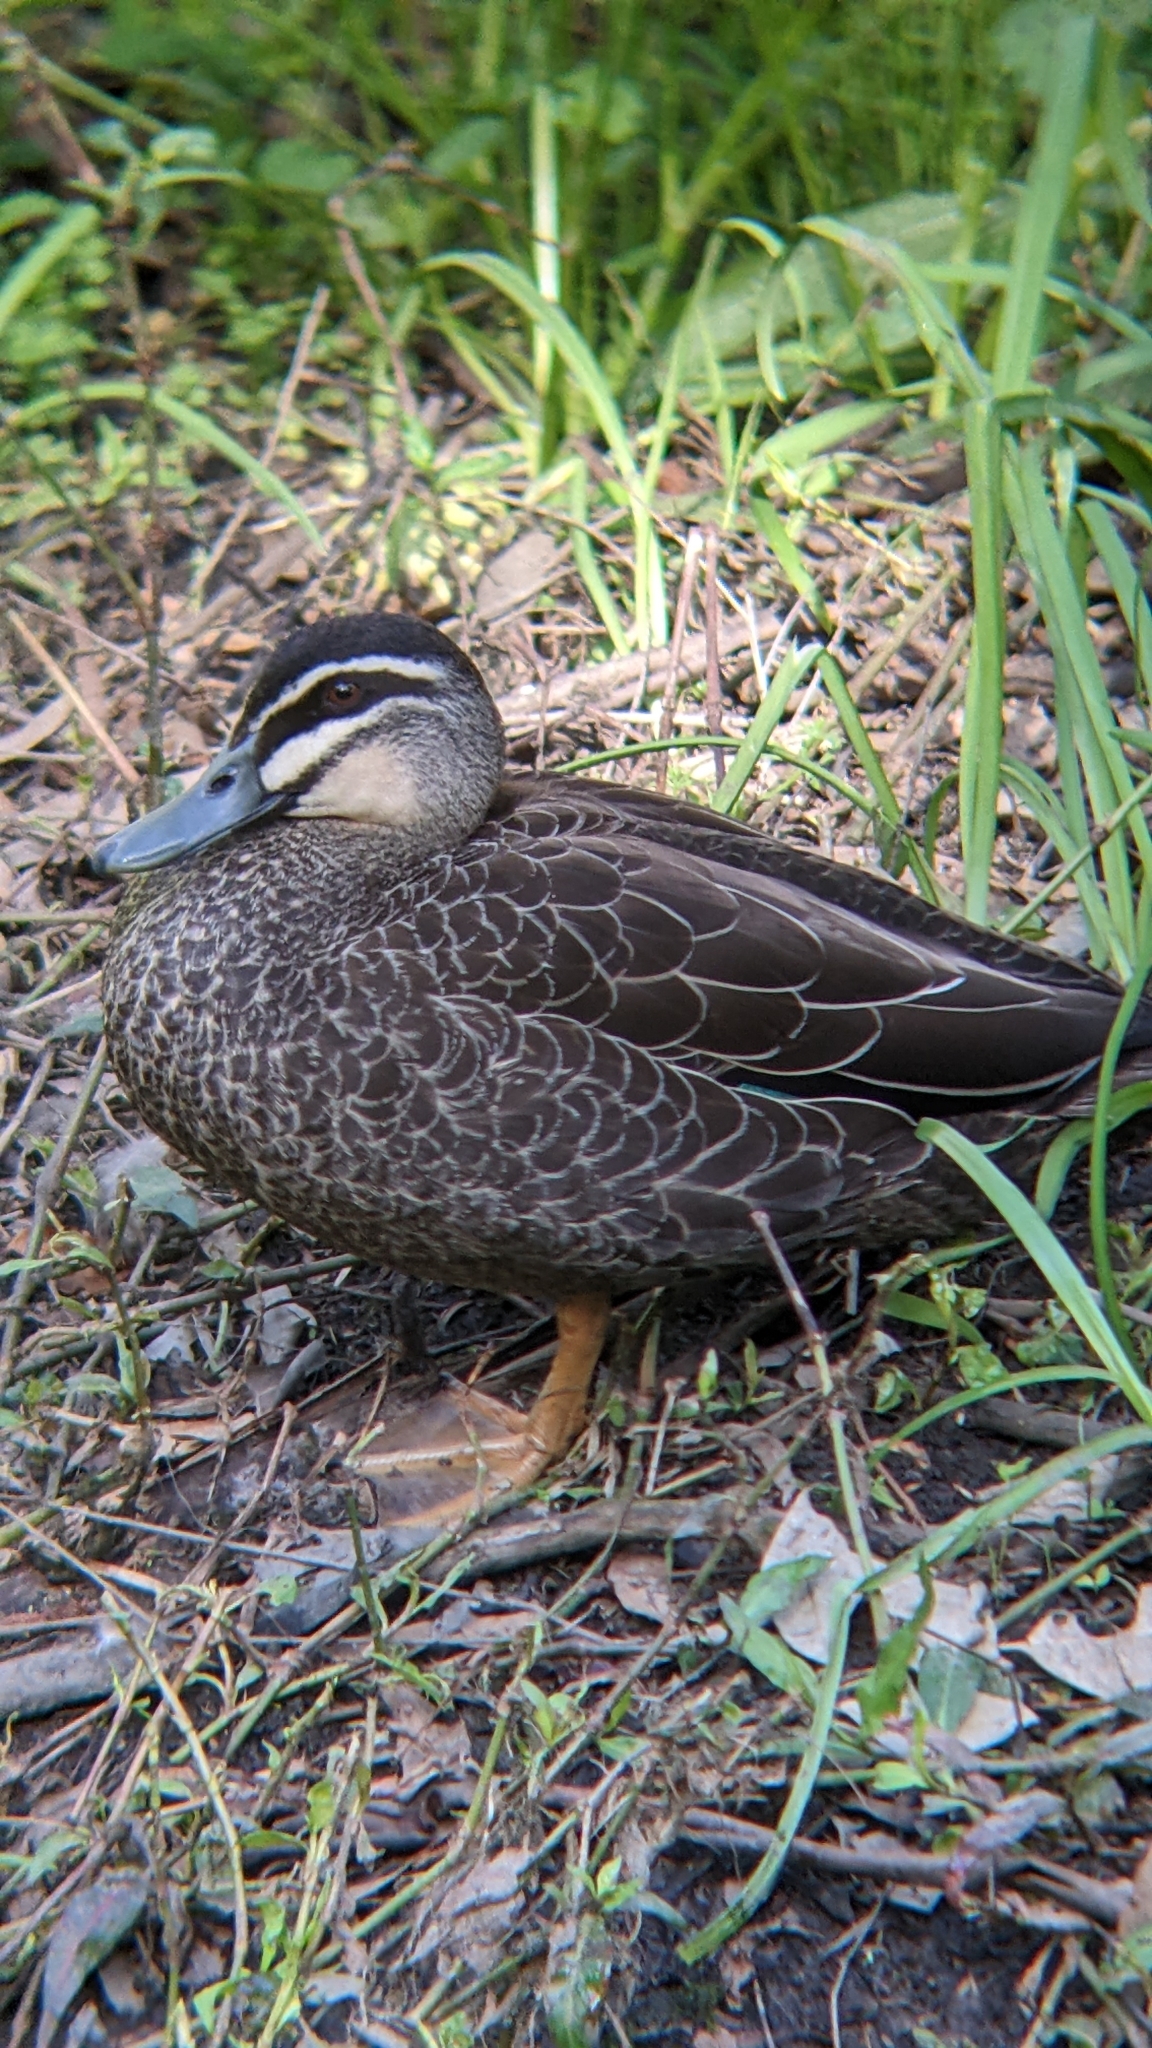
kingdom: Animalia
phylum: Chordata
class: Aves
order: Anseriformes
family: Anatidae
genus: Anas
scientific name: Anas
